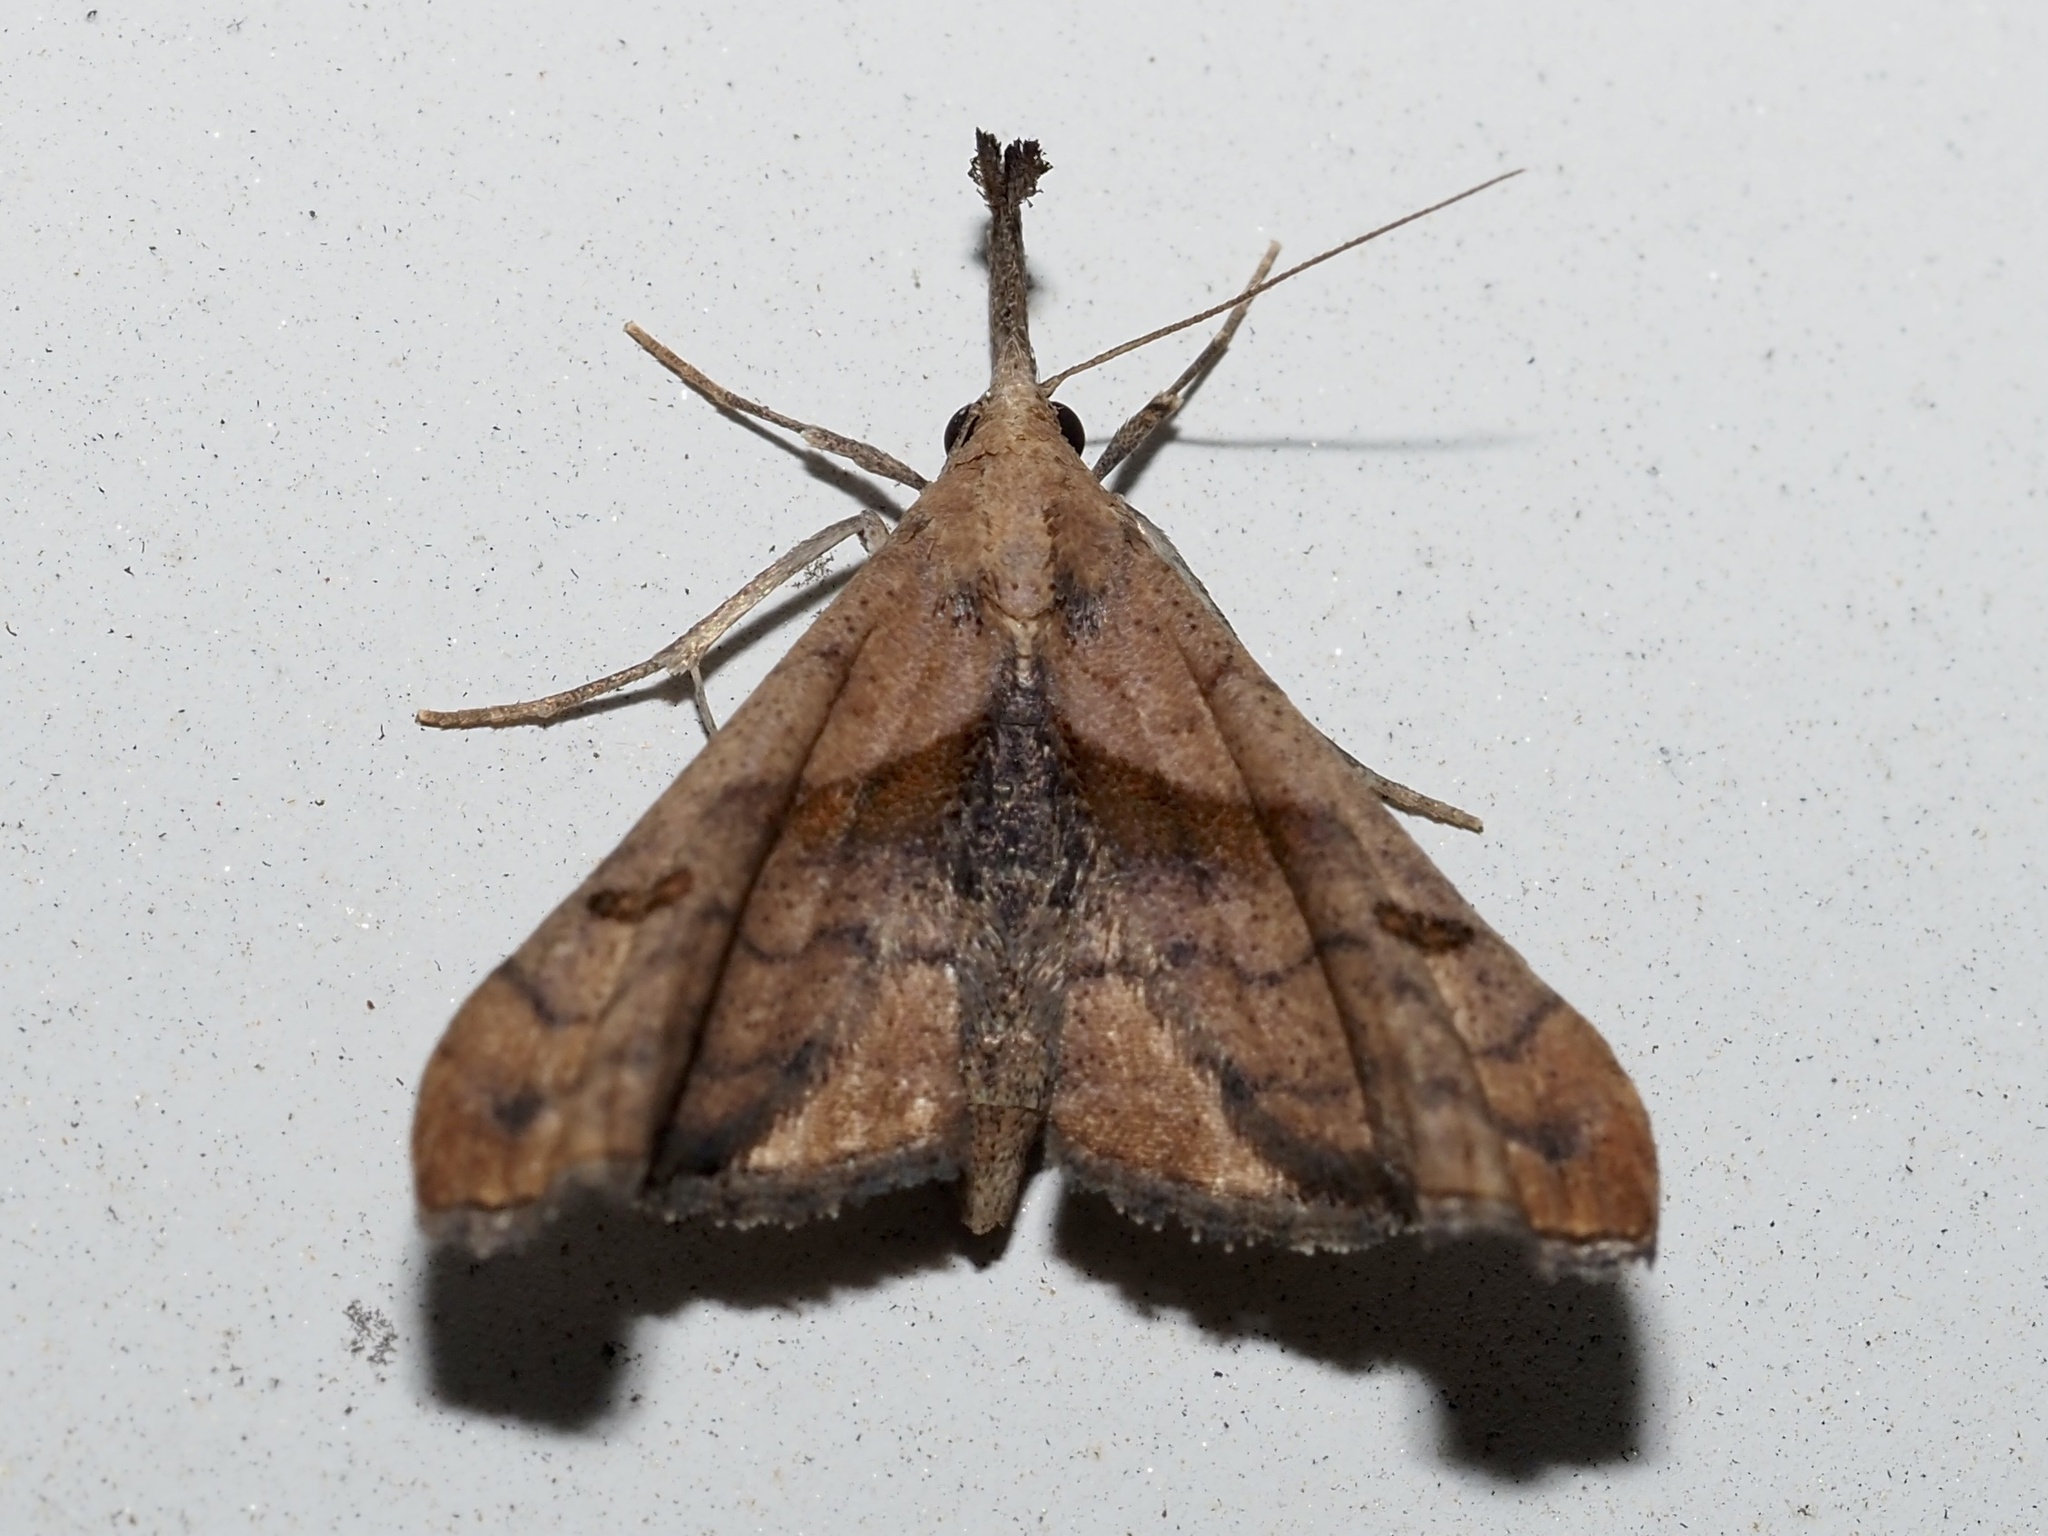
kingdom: Animalia
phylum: Arthropoda
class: Insecta
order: Lepidoptera
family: Erebidae
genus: Palthis
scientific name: Palthis angulalis
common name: Dark-spotted palthis moth
